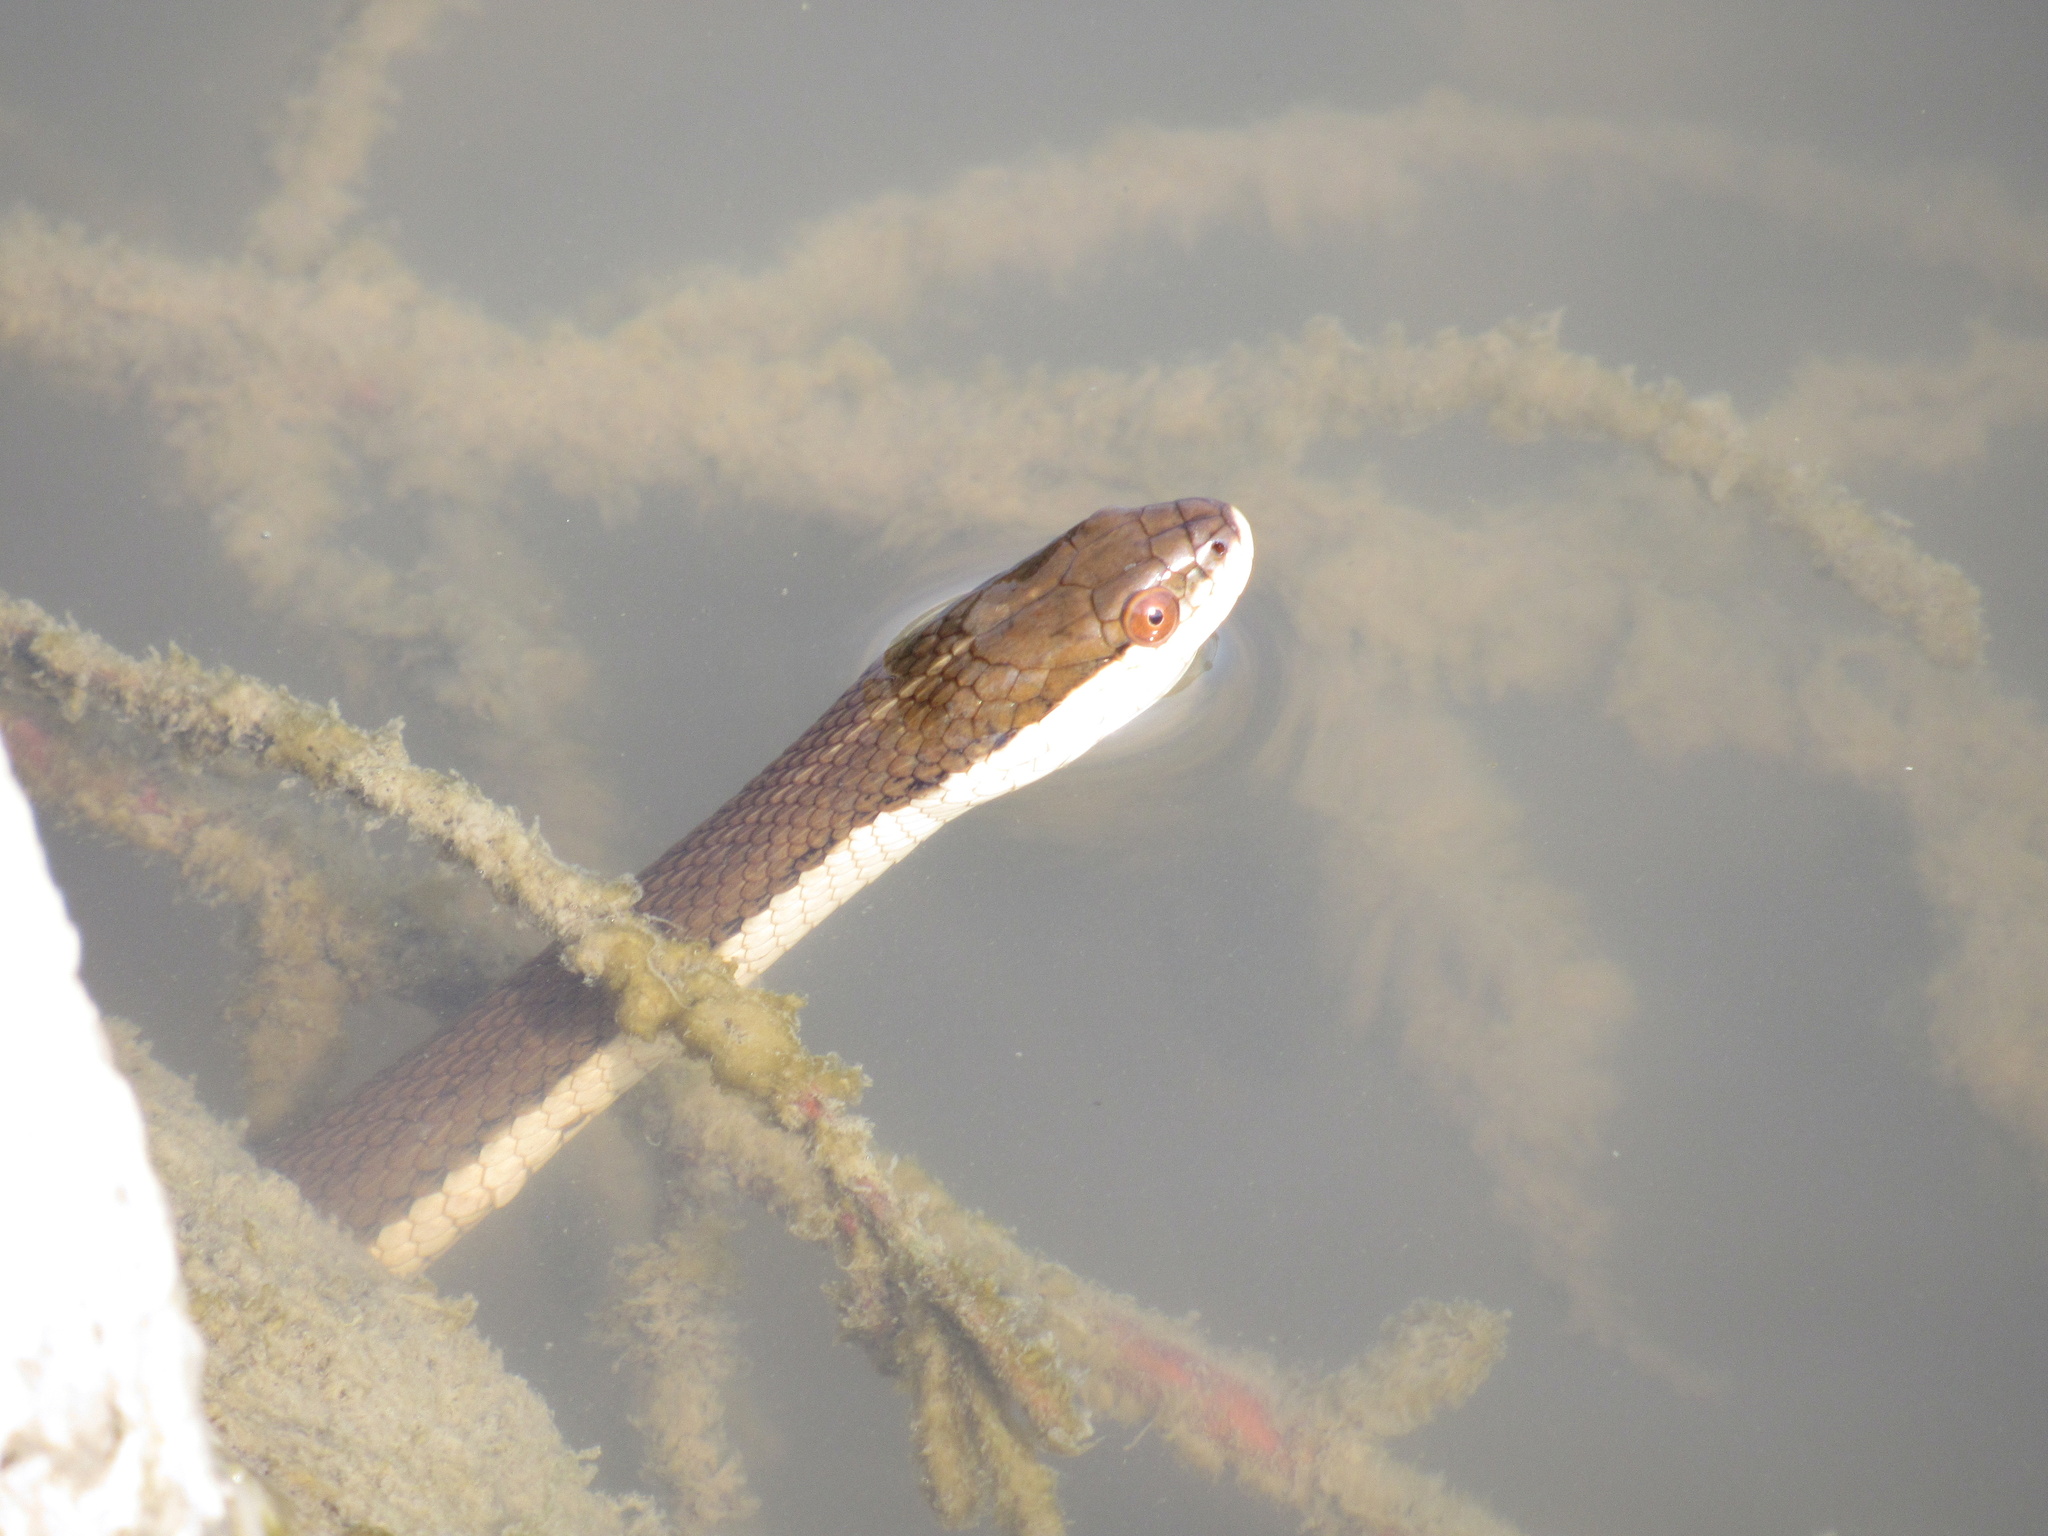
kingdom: Animalia
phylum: Chordata
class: Squamata
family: Colubridae
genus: Regina
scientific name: Regina grahamii
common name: Graham's crayfish snake
